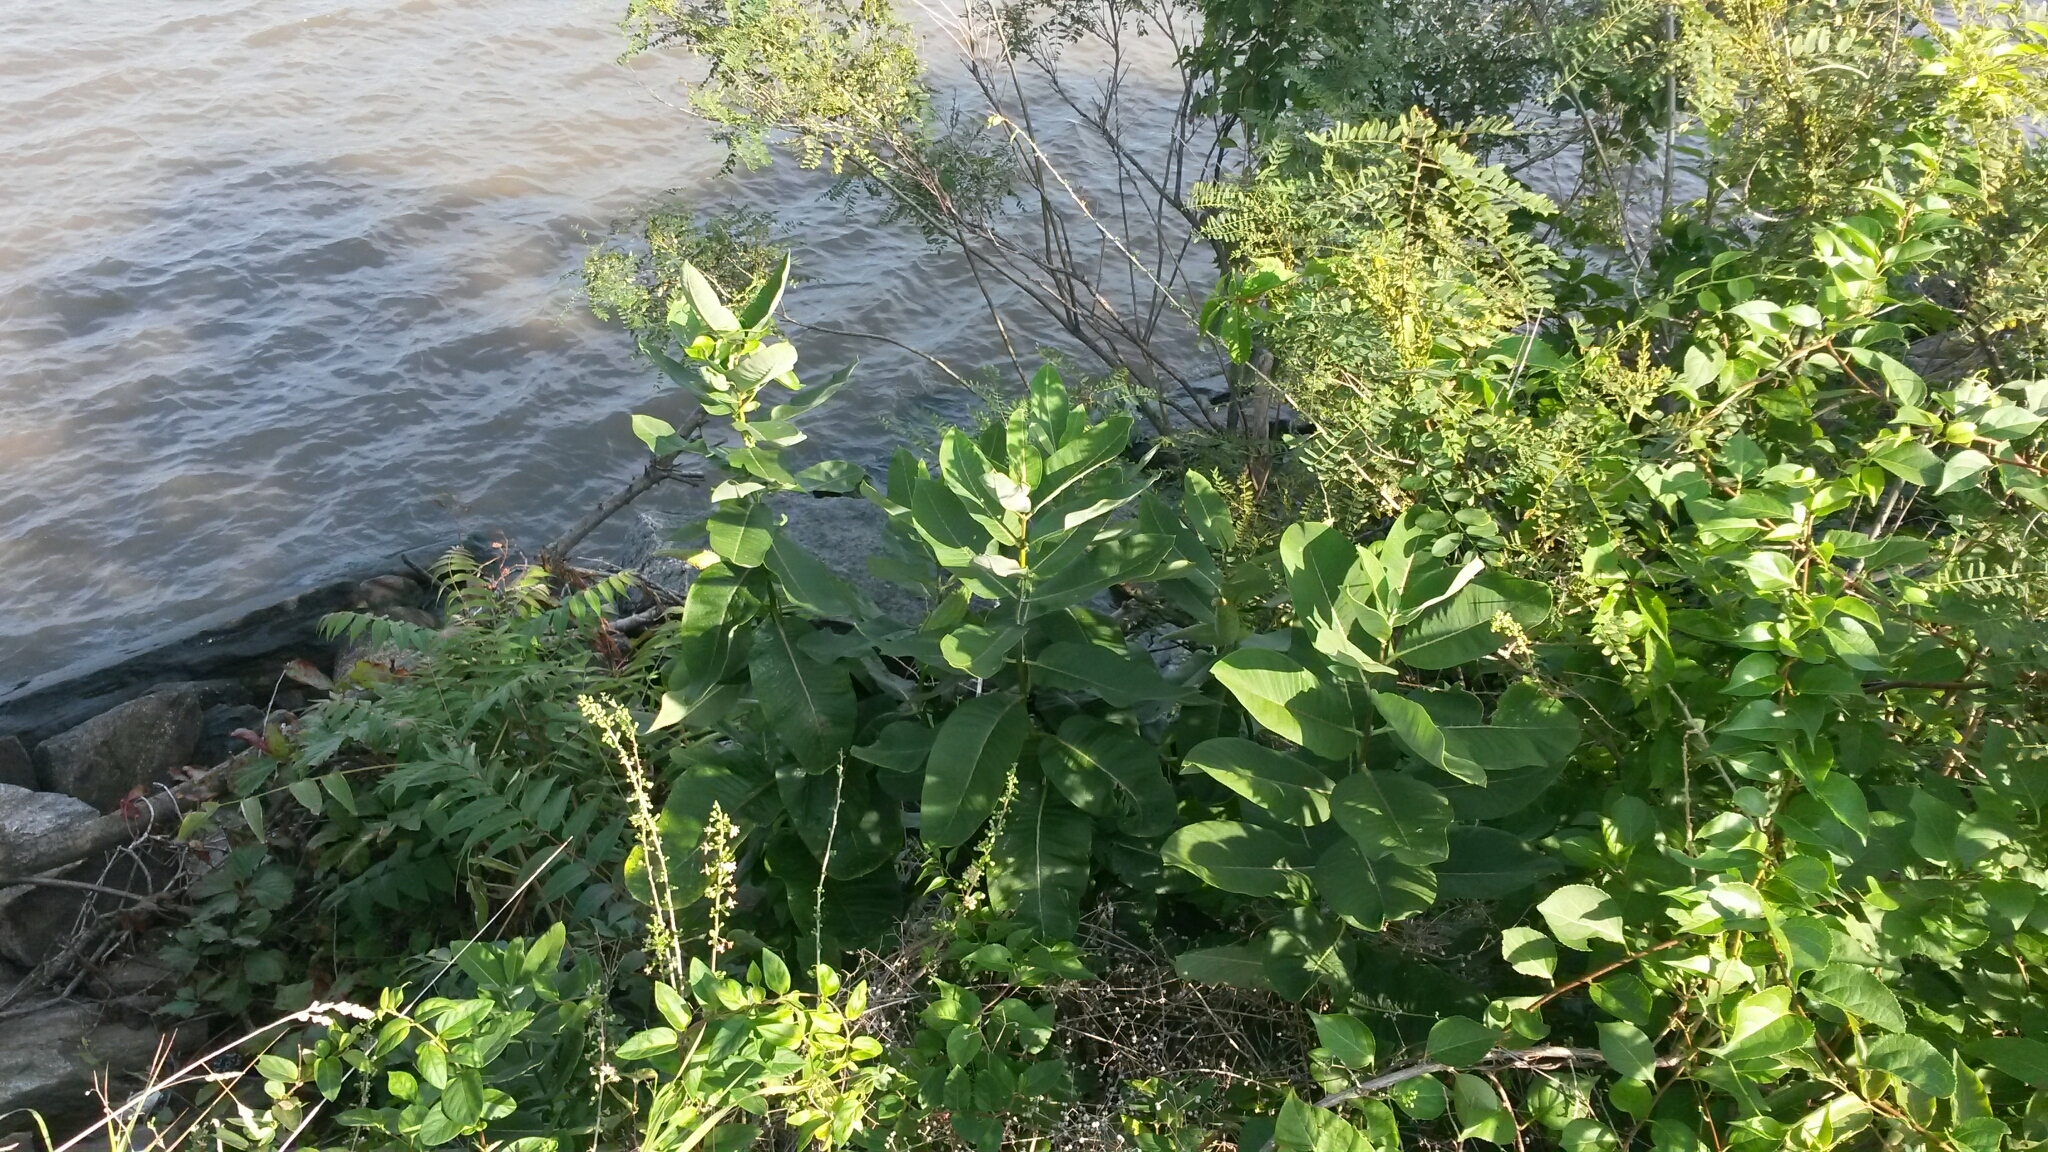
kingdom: Plantae
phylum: Tracheophyta
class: Magnoliopsida
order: Gentianales
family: Apocynaceae
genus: Asclepias
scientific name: Asclepias syriaca
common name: Common milkweed
